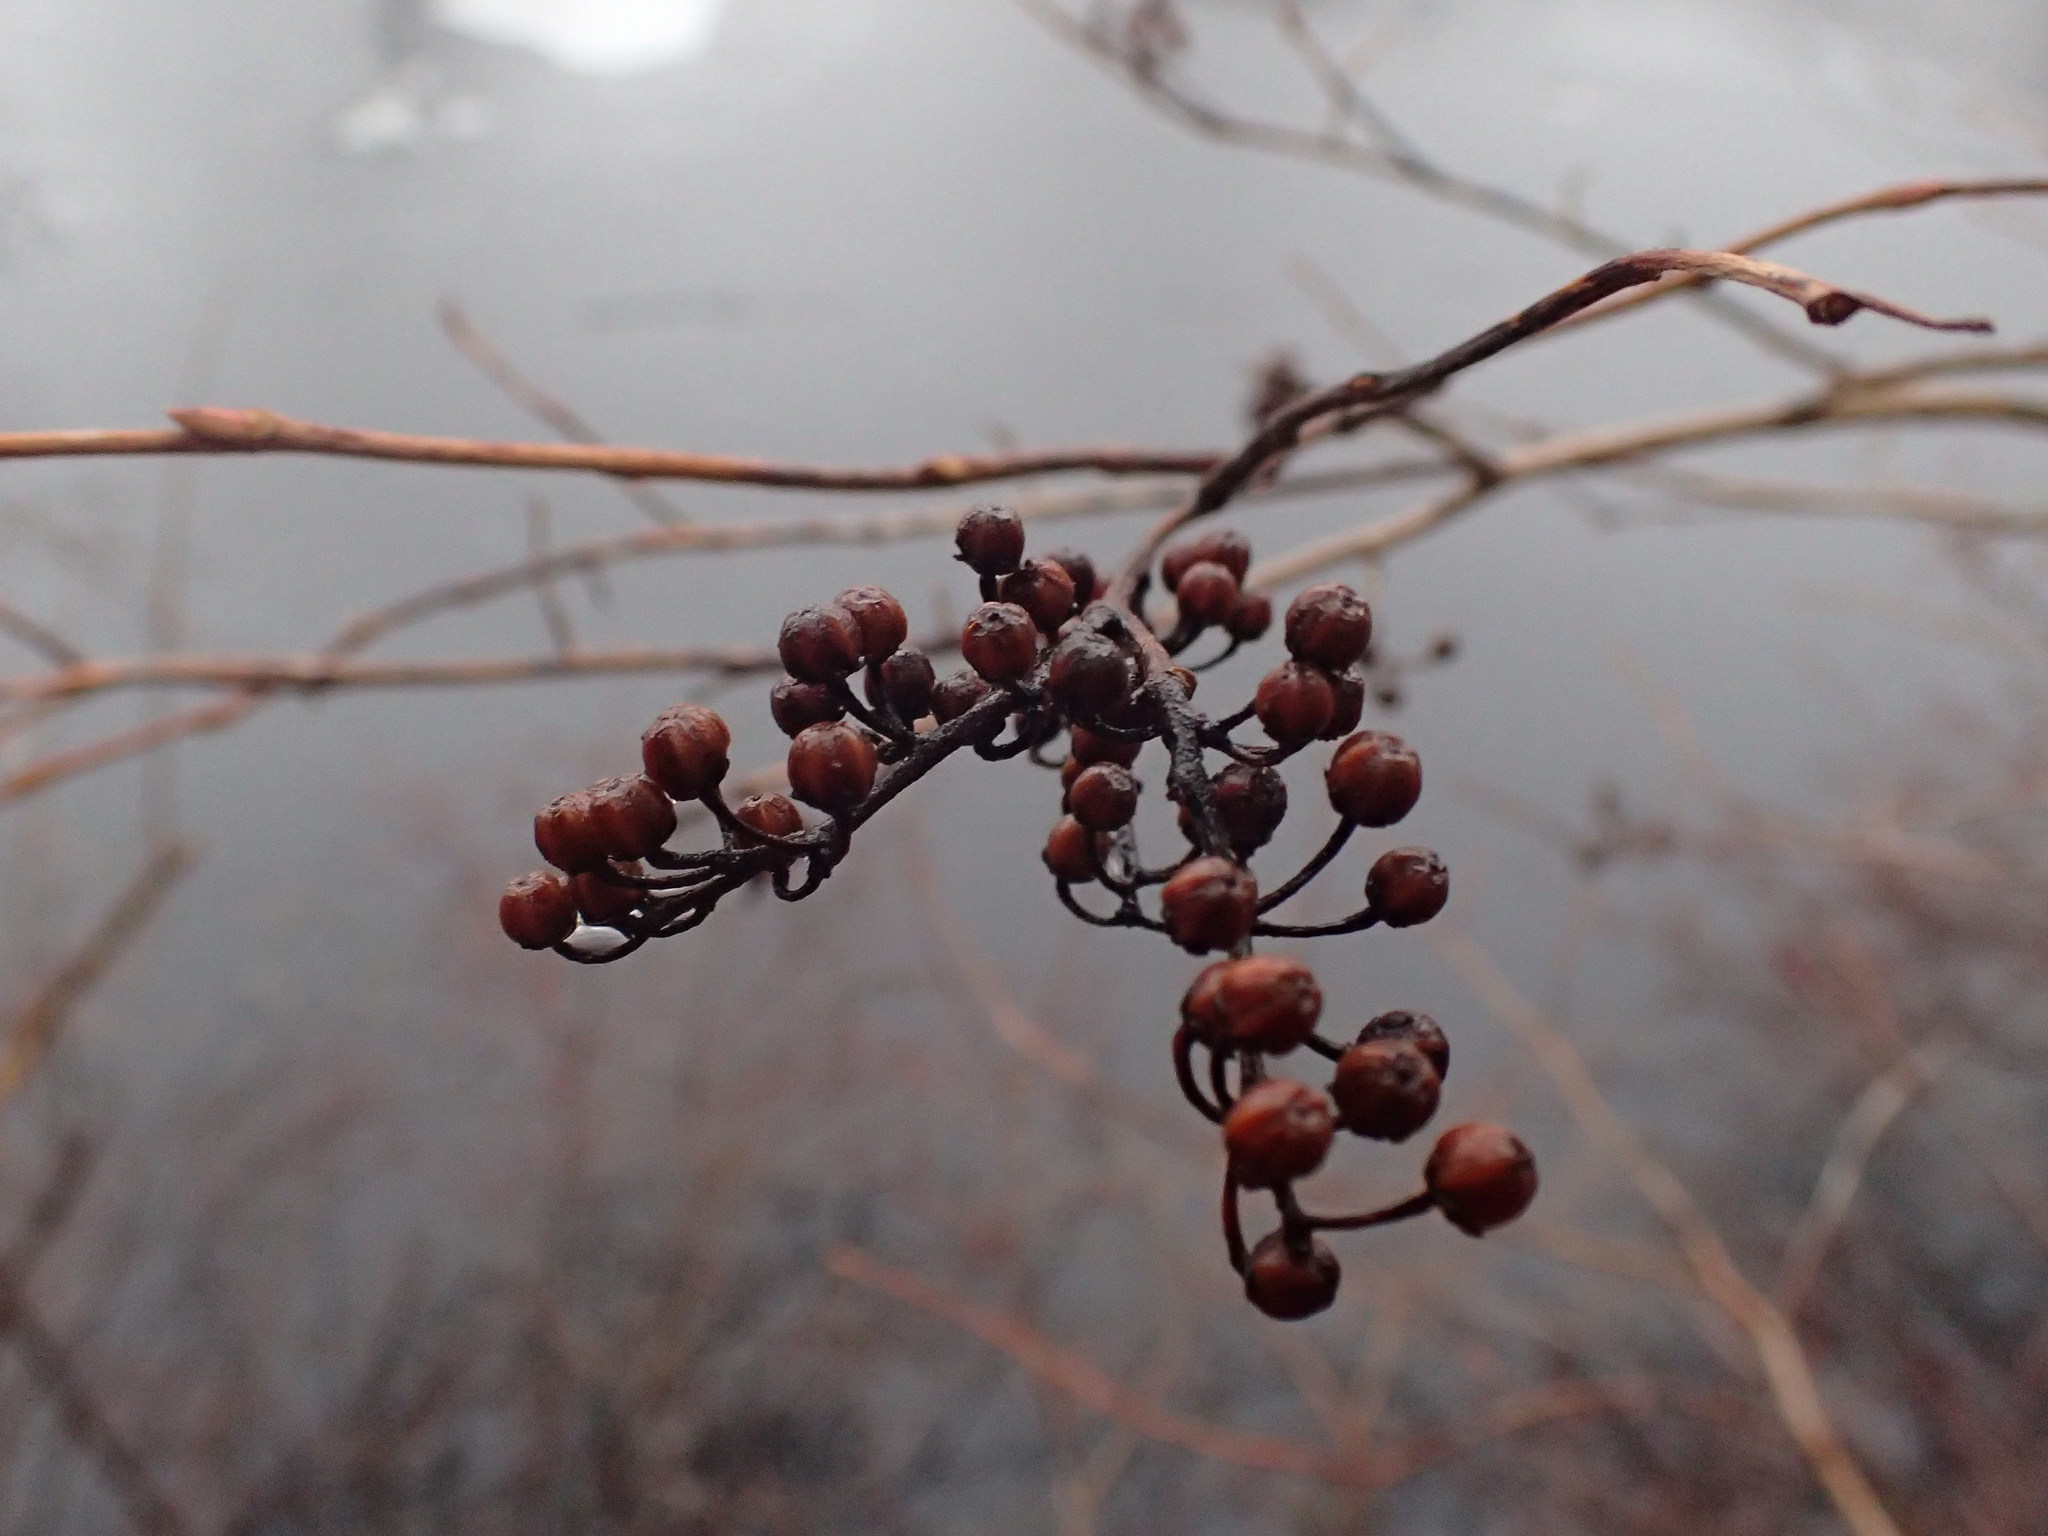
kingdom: Plantae
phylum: Tracheophyta
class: Magnoliopsida
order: Ericales
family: Ericaceae
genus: Lyonia
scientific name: Lyonia ligustrina
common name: Maleberry
